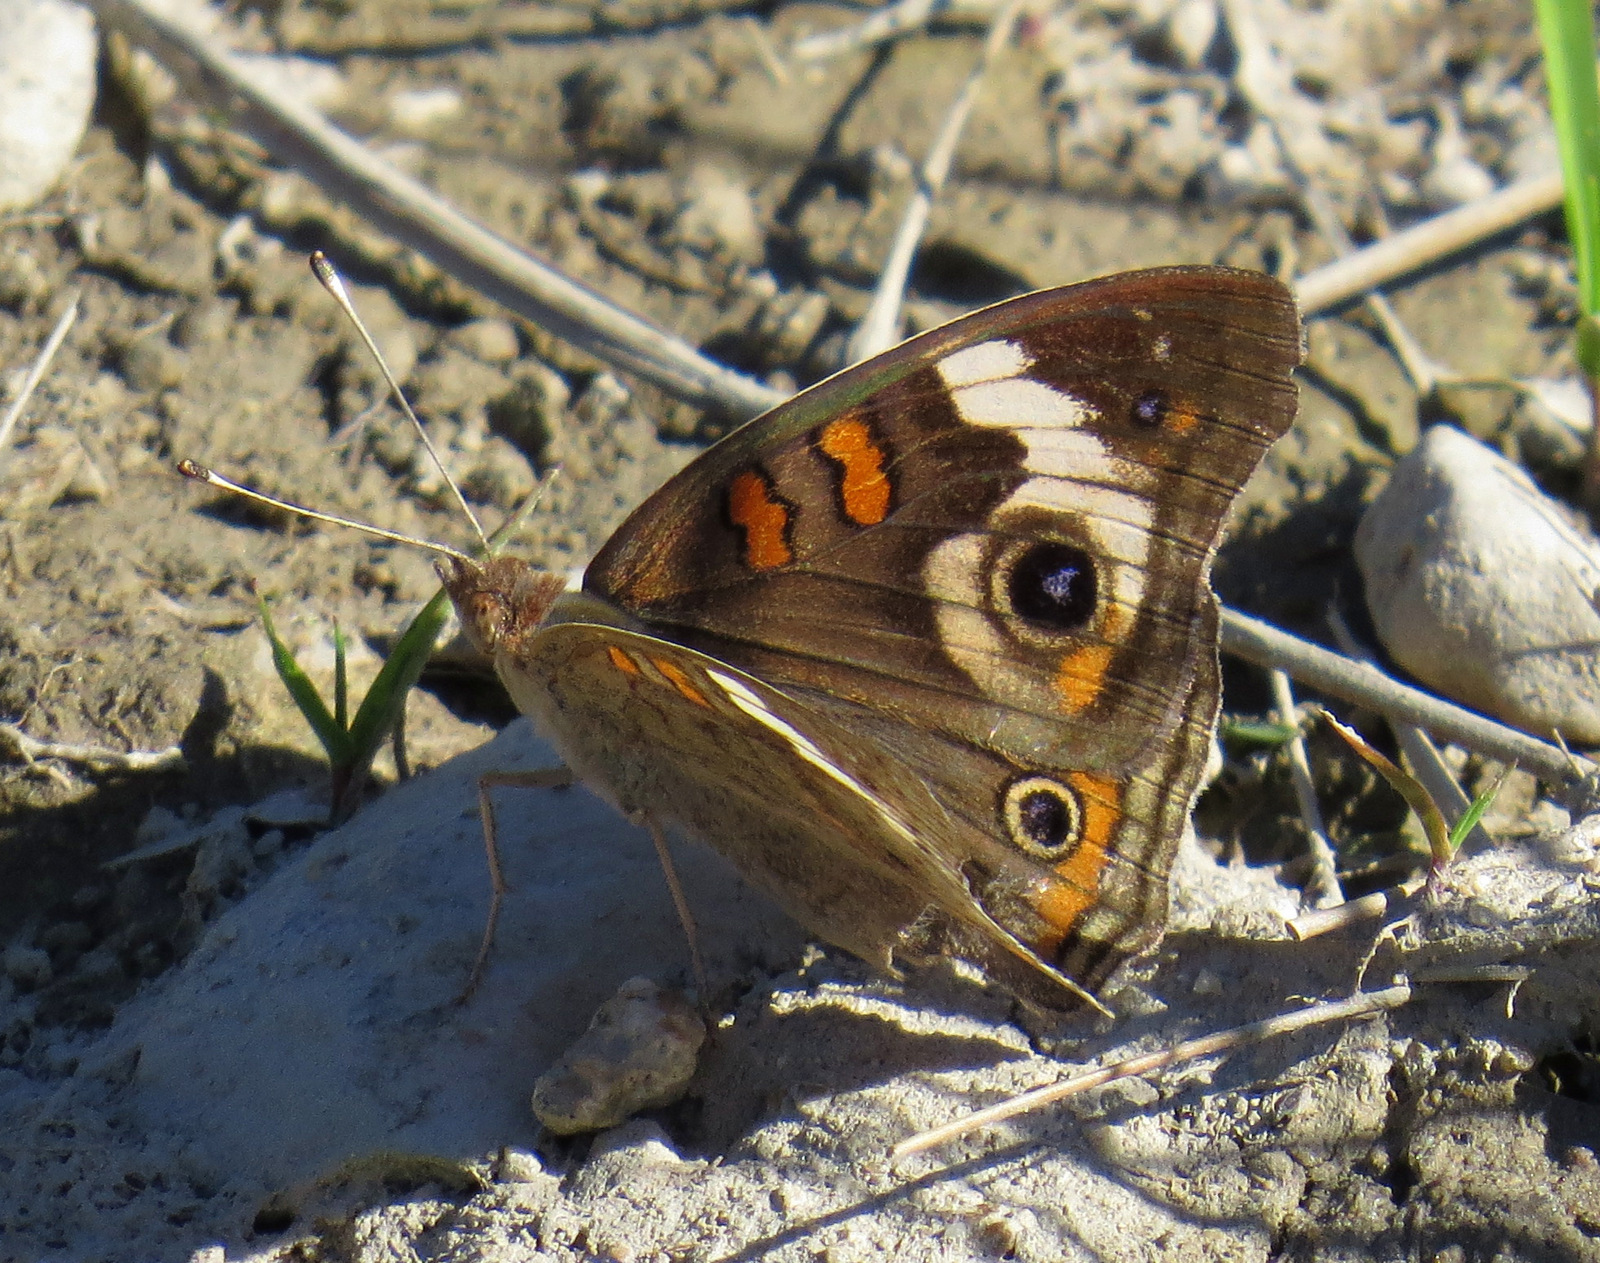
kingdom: Animalia
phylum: Arthropoda
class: Insecta
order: Lepidoptera
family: Nymphalidae
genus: Junonia
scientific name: Junonia coenia
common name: Common buckeye
